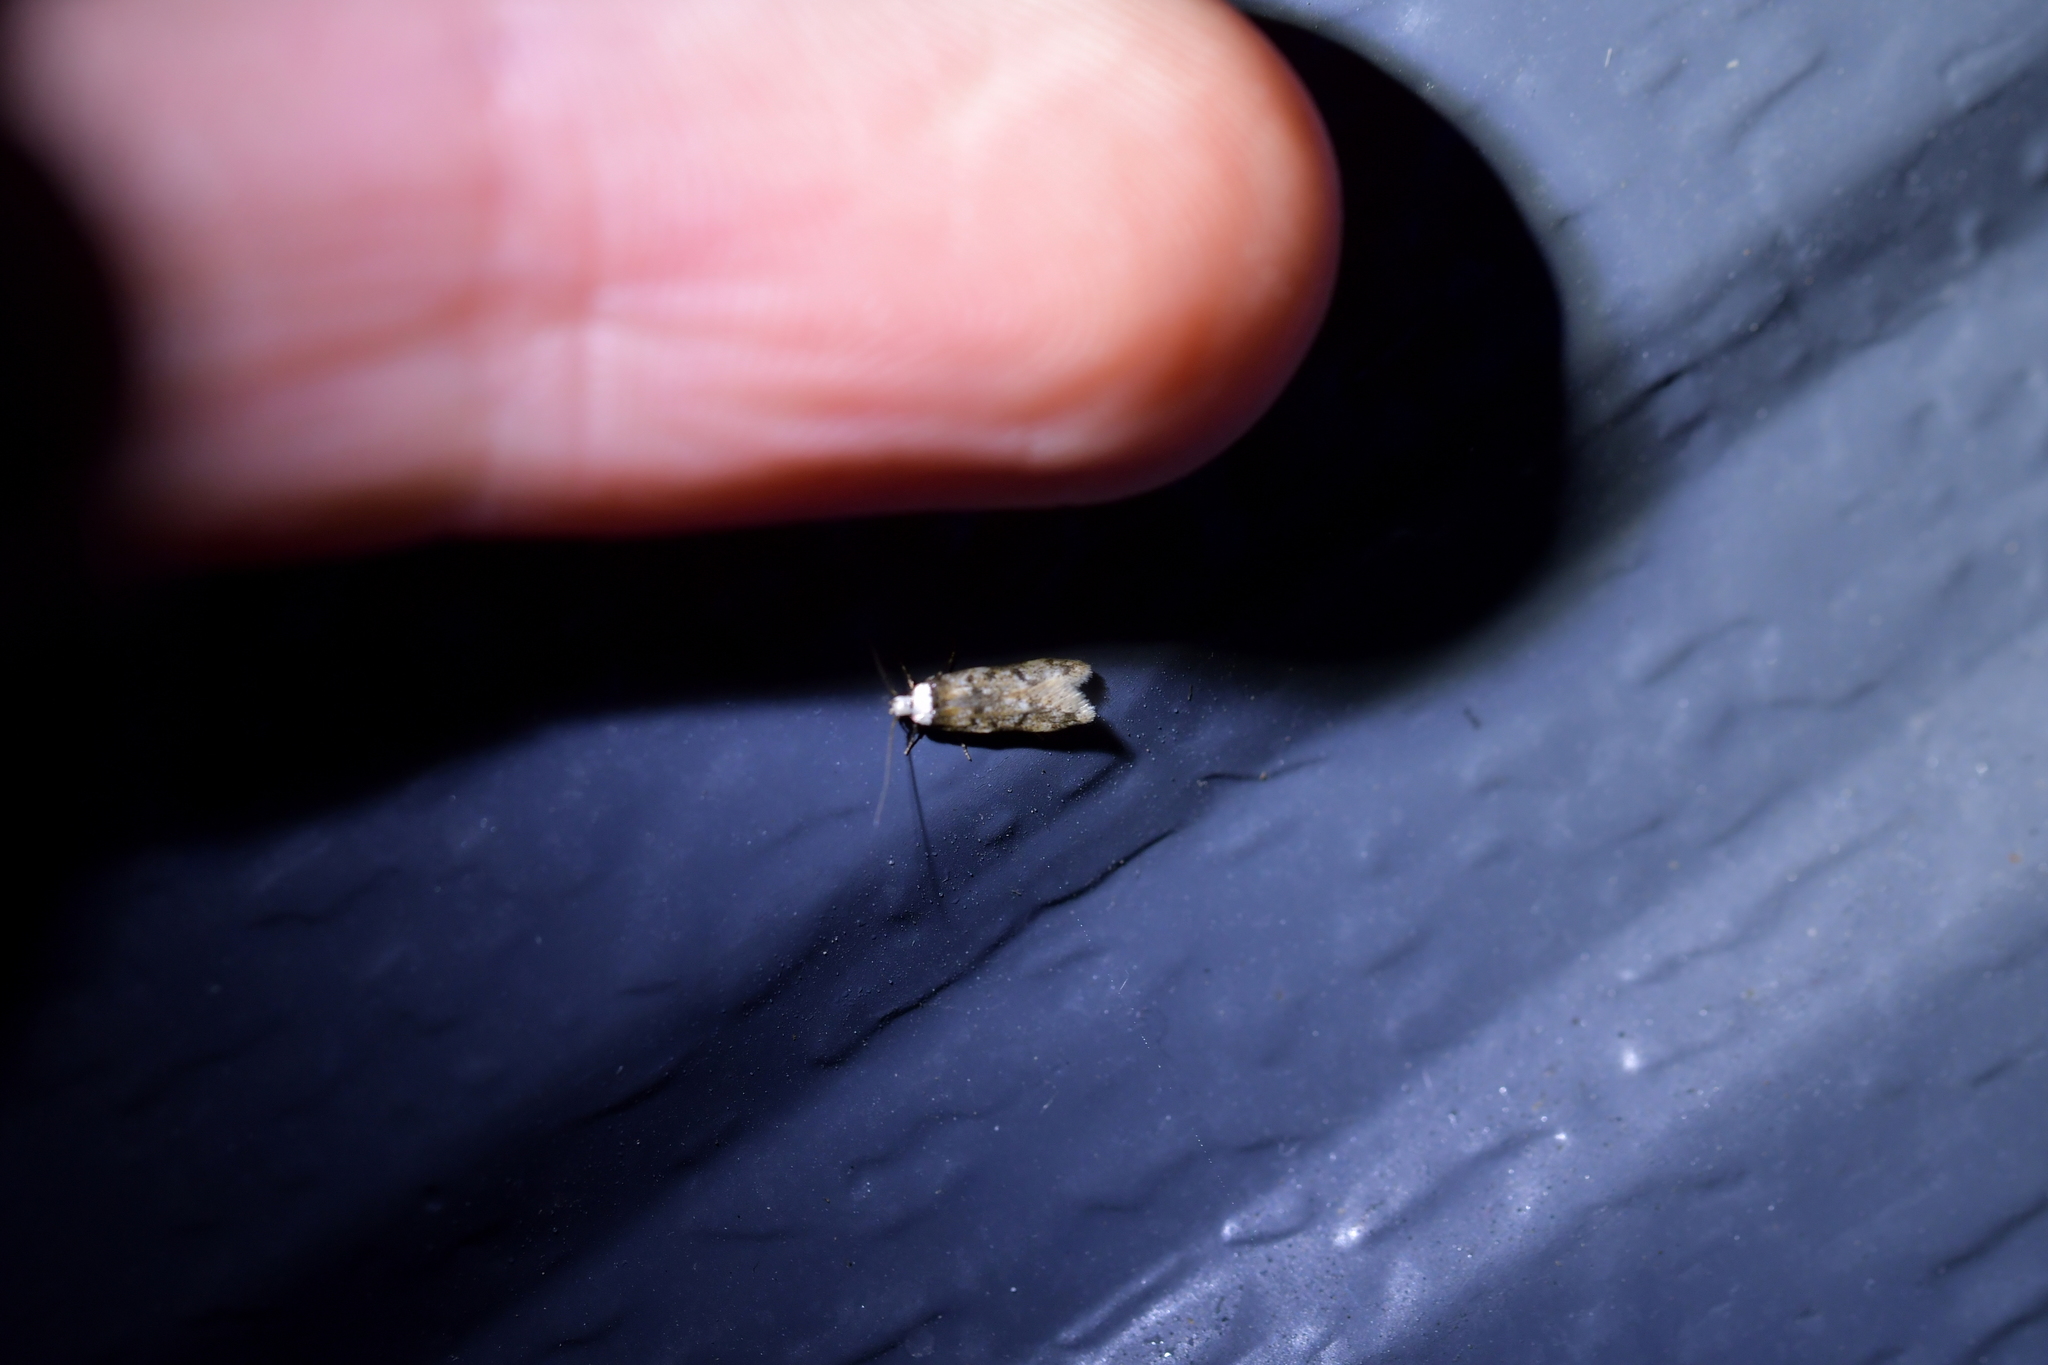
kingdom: Animalia
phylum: Arthropoda
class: Insecta
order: Lepidoptera
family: Oecophoridae
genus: Endrosis
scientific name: Endrosis sarcitrella
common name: White-shouldered house moth
